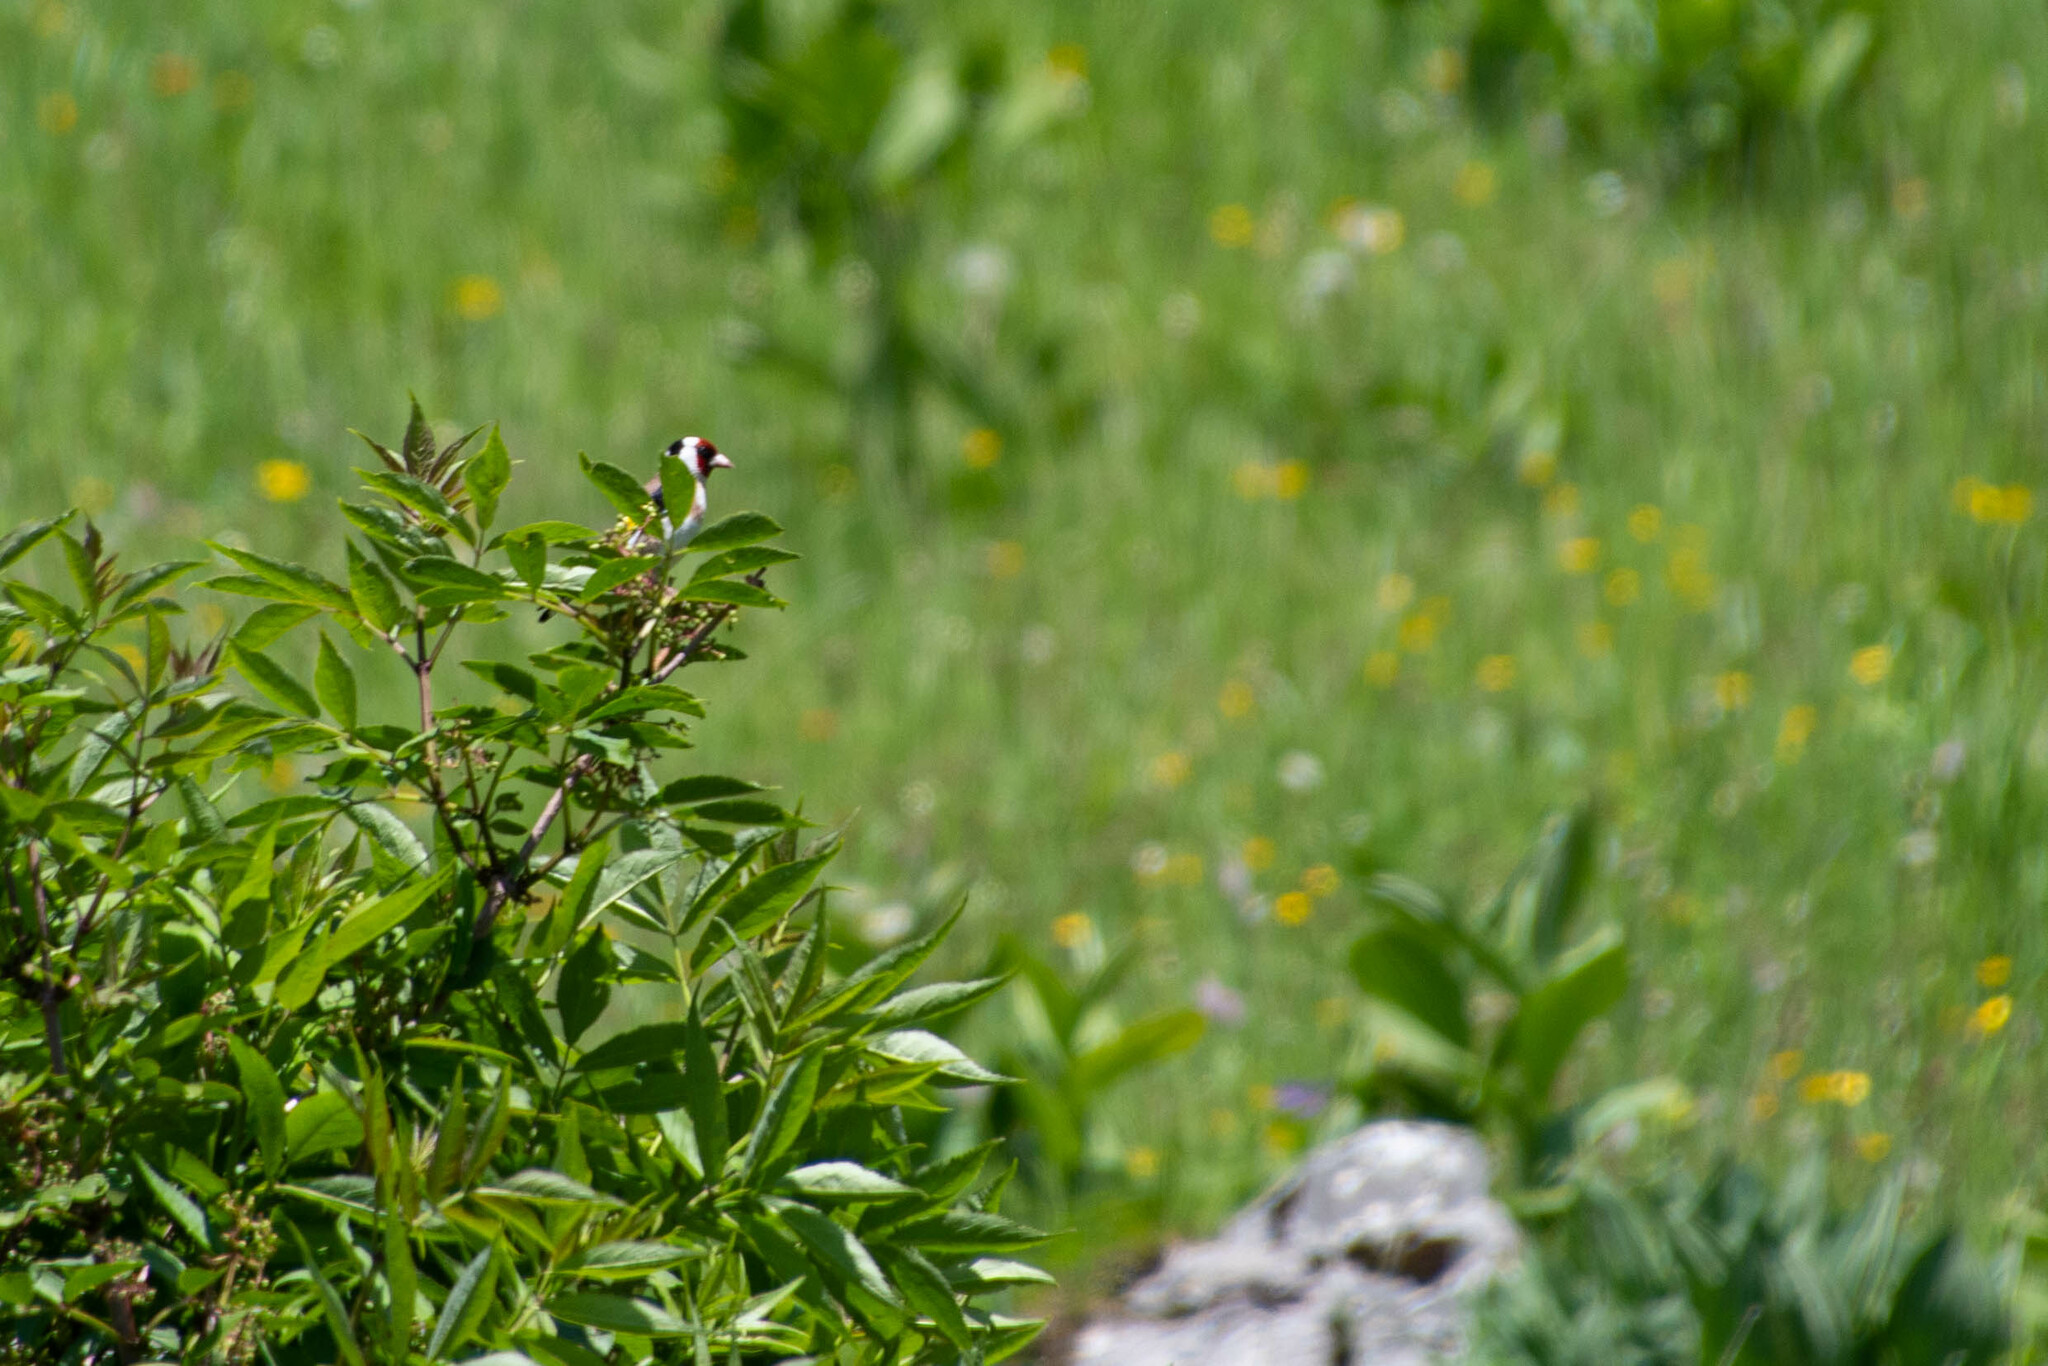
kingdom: Animalia
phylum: Chordata
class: Aves
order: Passeriformes
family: Fringillidae
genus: Carduelis
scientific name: Carduelis carduelis
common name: European goldfinch
